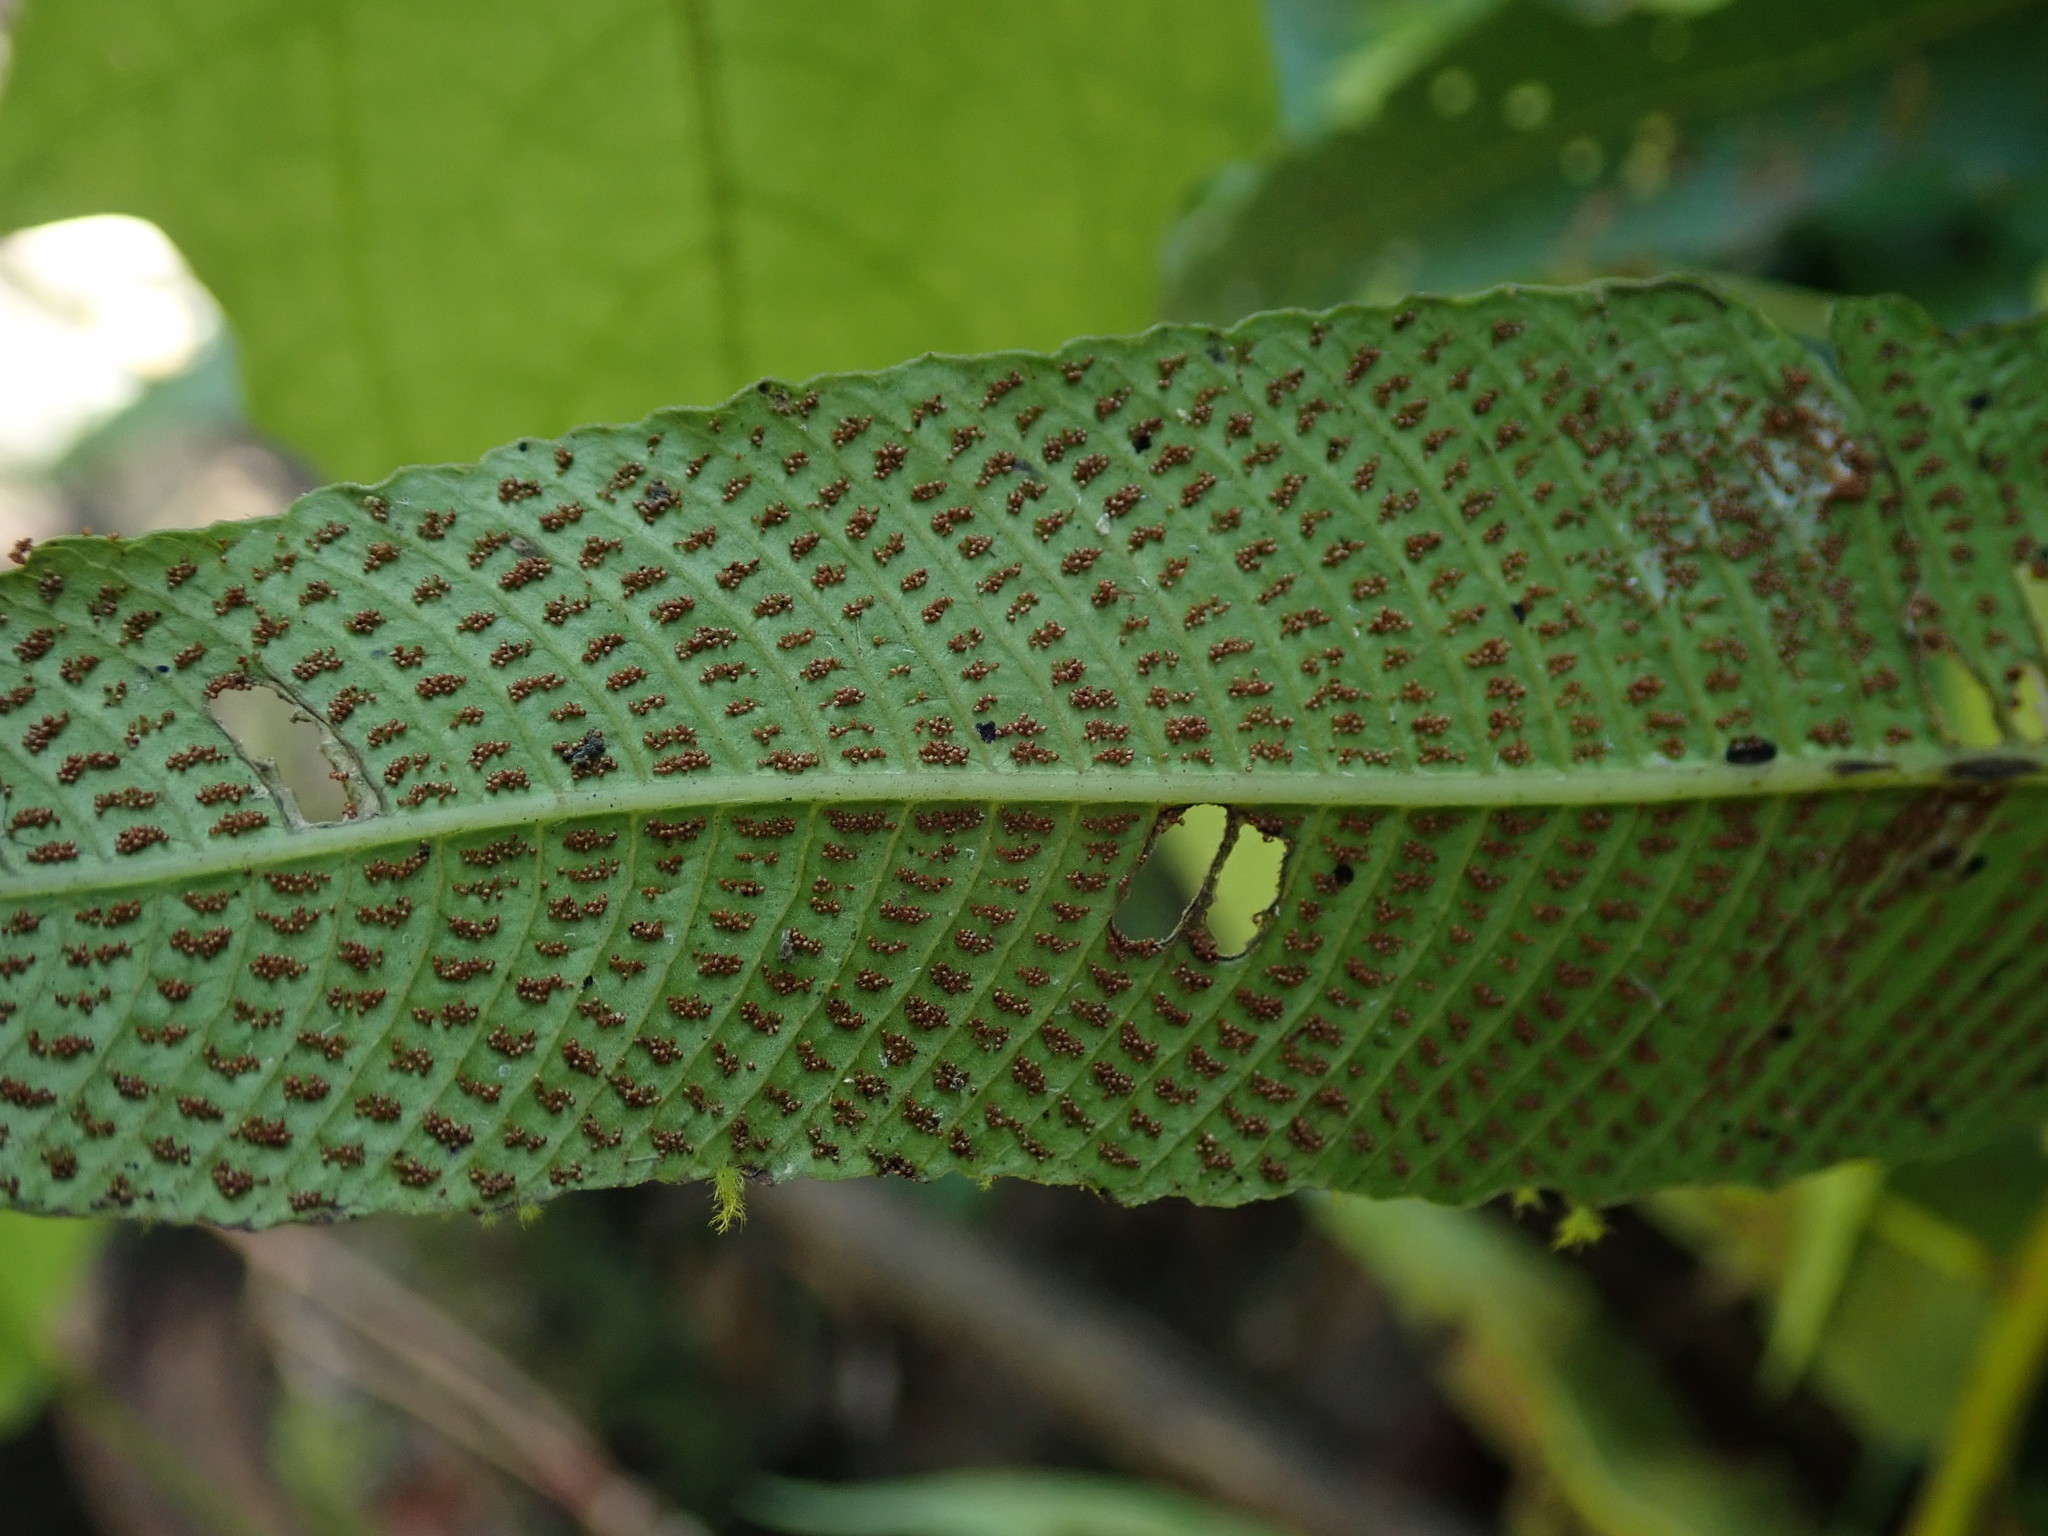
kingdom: Plantae
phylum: Tracheophyta
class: Polypodiopsida
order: Polypodiales
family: Thelypteridaceae
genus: Meniscium
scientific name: Meniscium reticulatum
